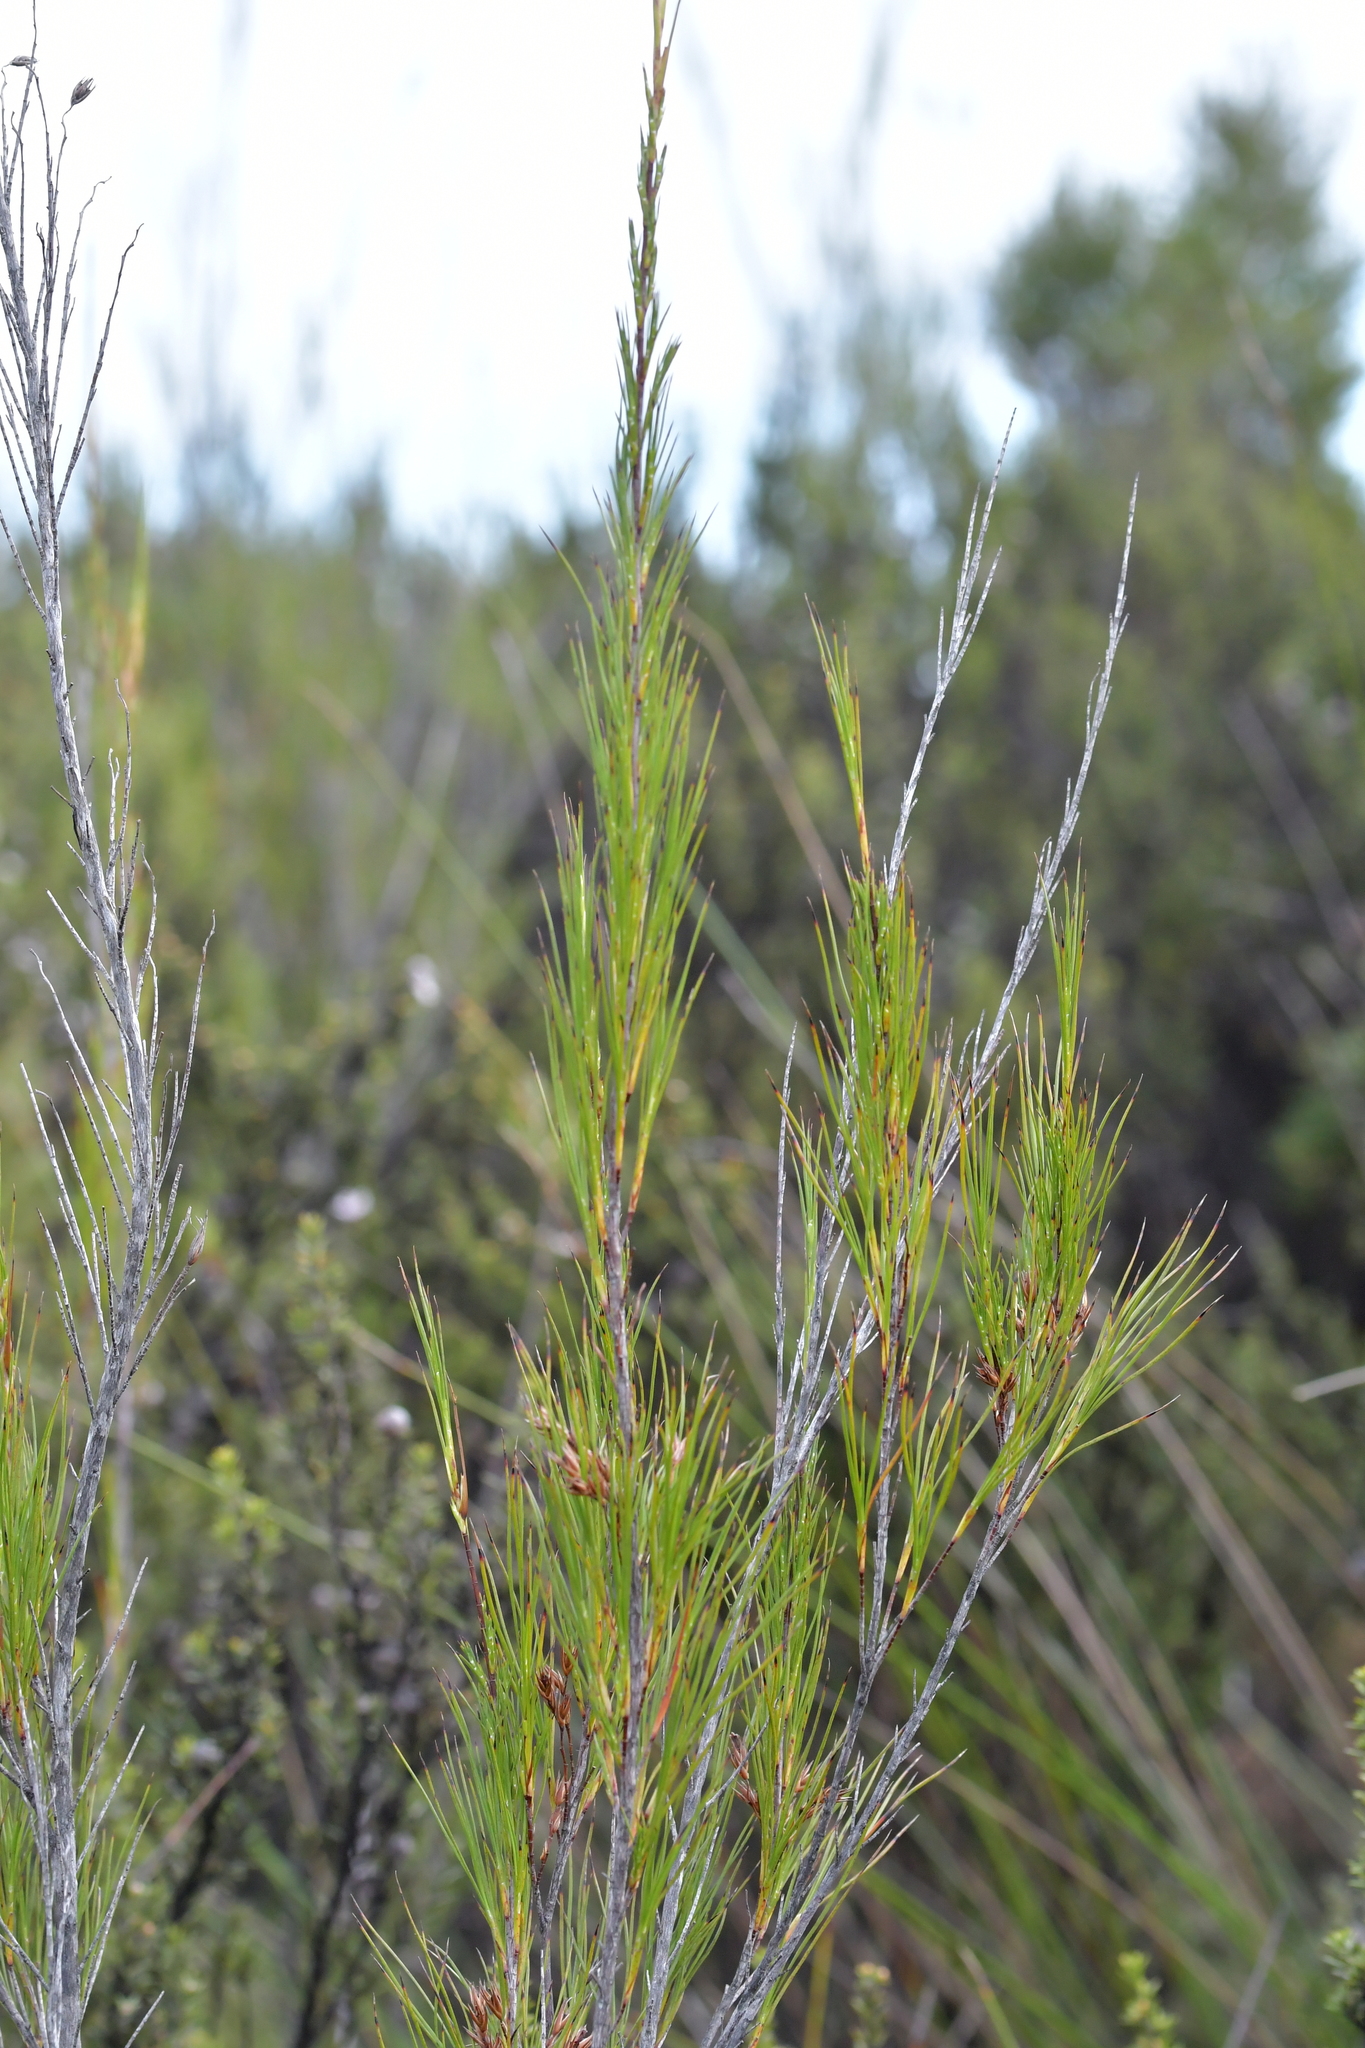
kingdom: Plantae
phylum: Tracheophyta
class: Magnoliopsida
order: Ericales
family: Ericaceae
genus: Dracophyllum
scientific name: Dracophyllum lessonianum
